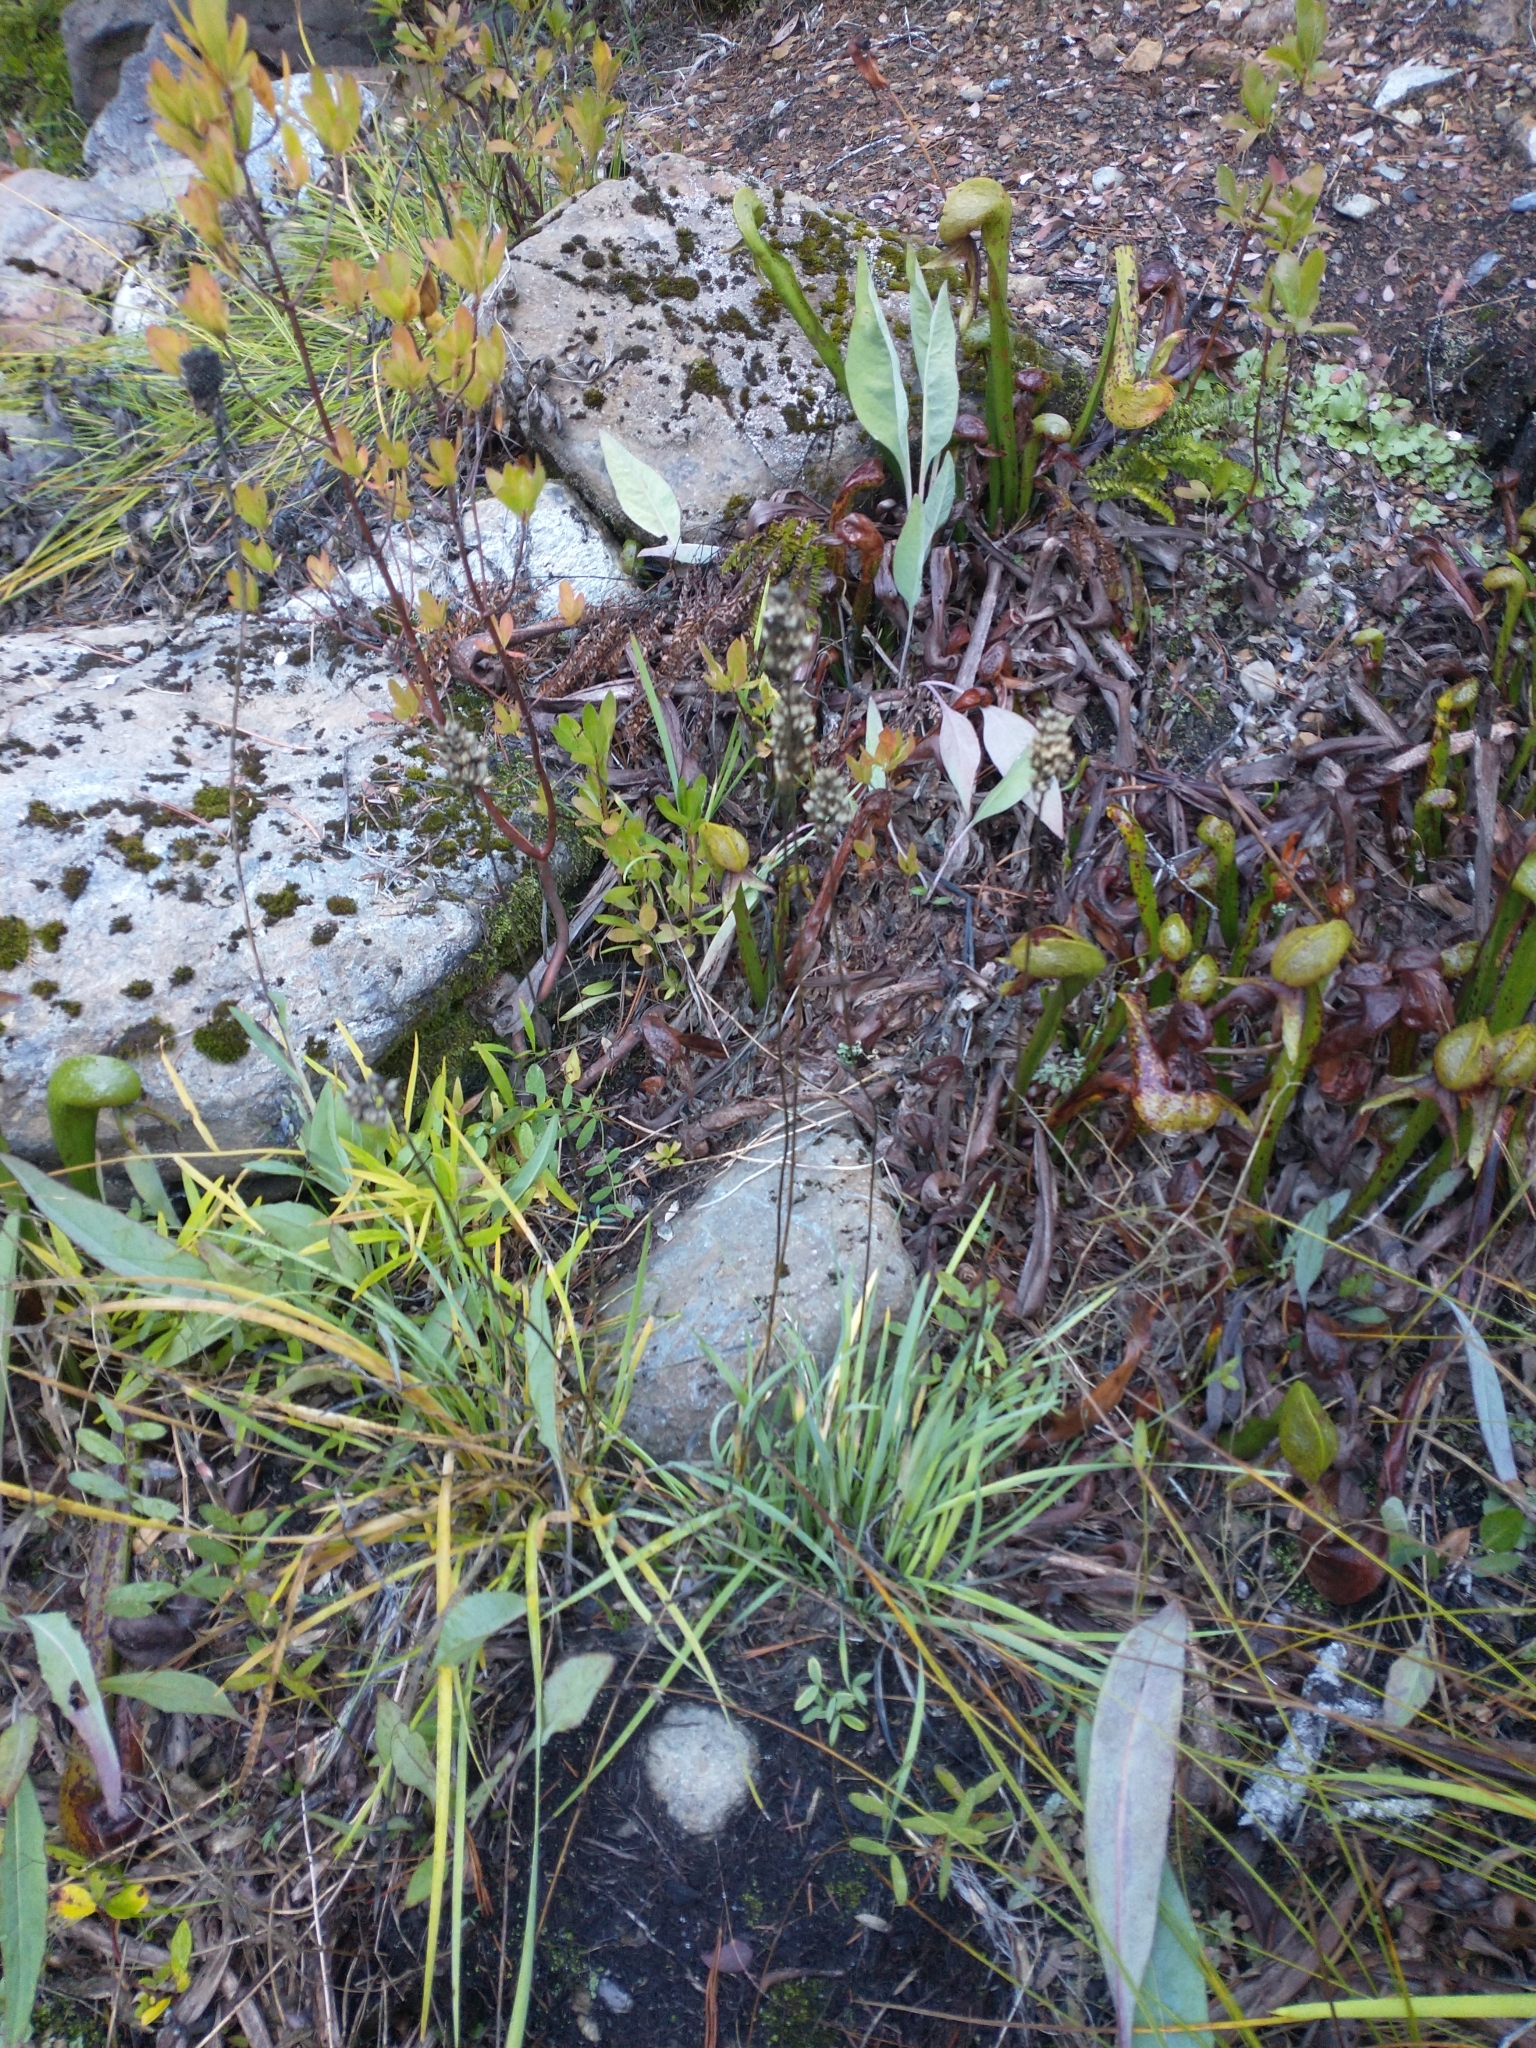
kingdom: Plantae
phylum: Tracheophyta
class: Magnoliopsida
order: Ericales
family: Sarraceniaceae
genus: Darlingtonia
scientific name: Darlingtonia californica
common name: California pitcher plant
